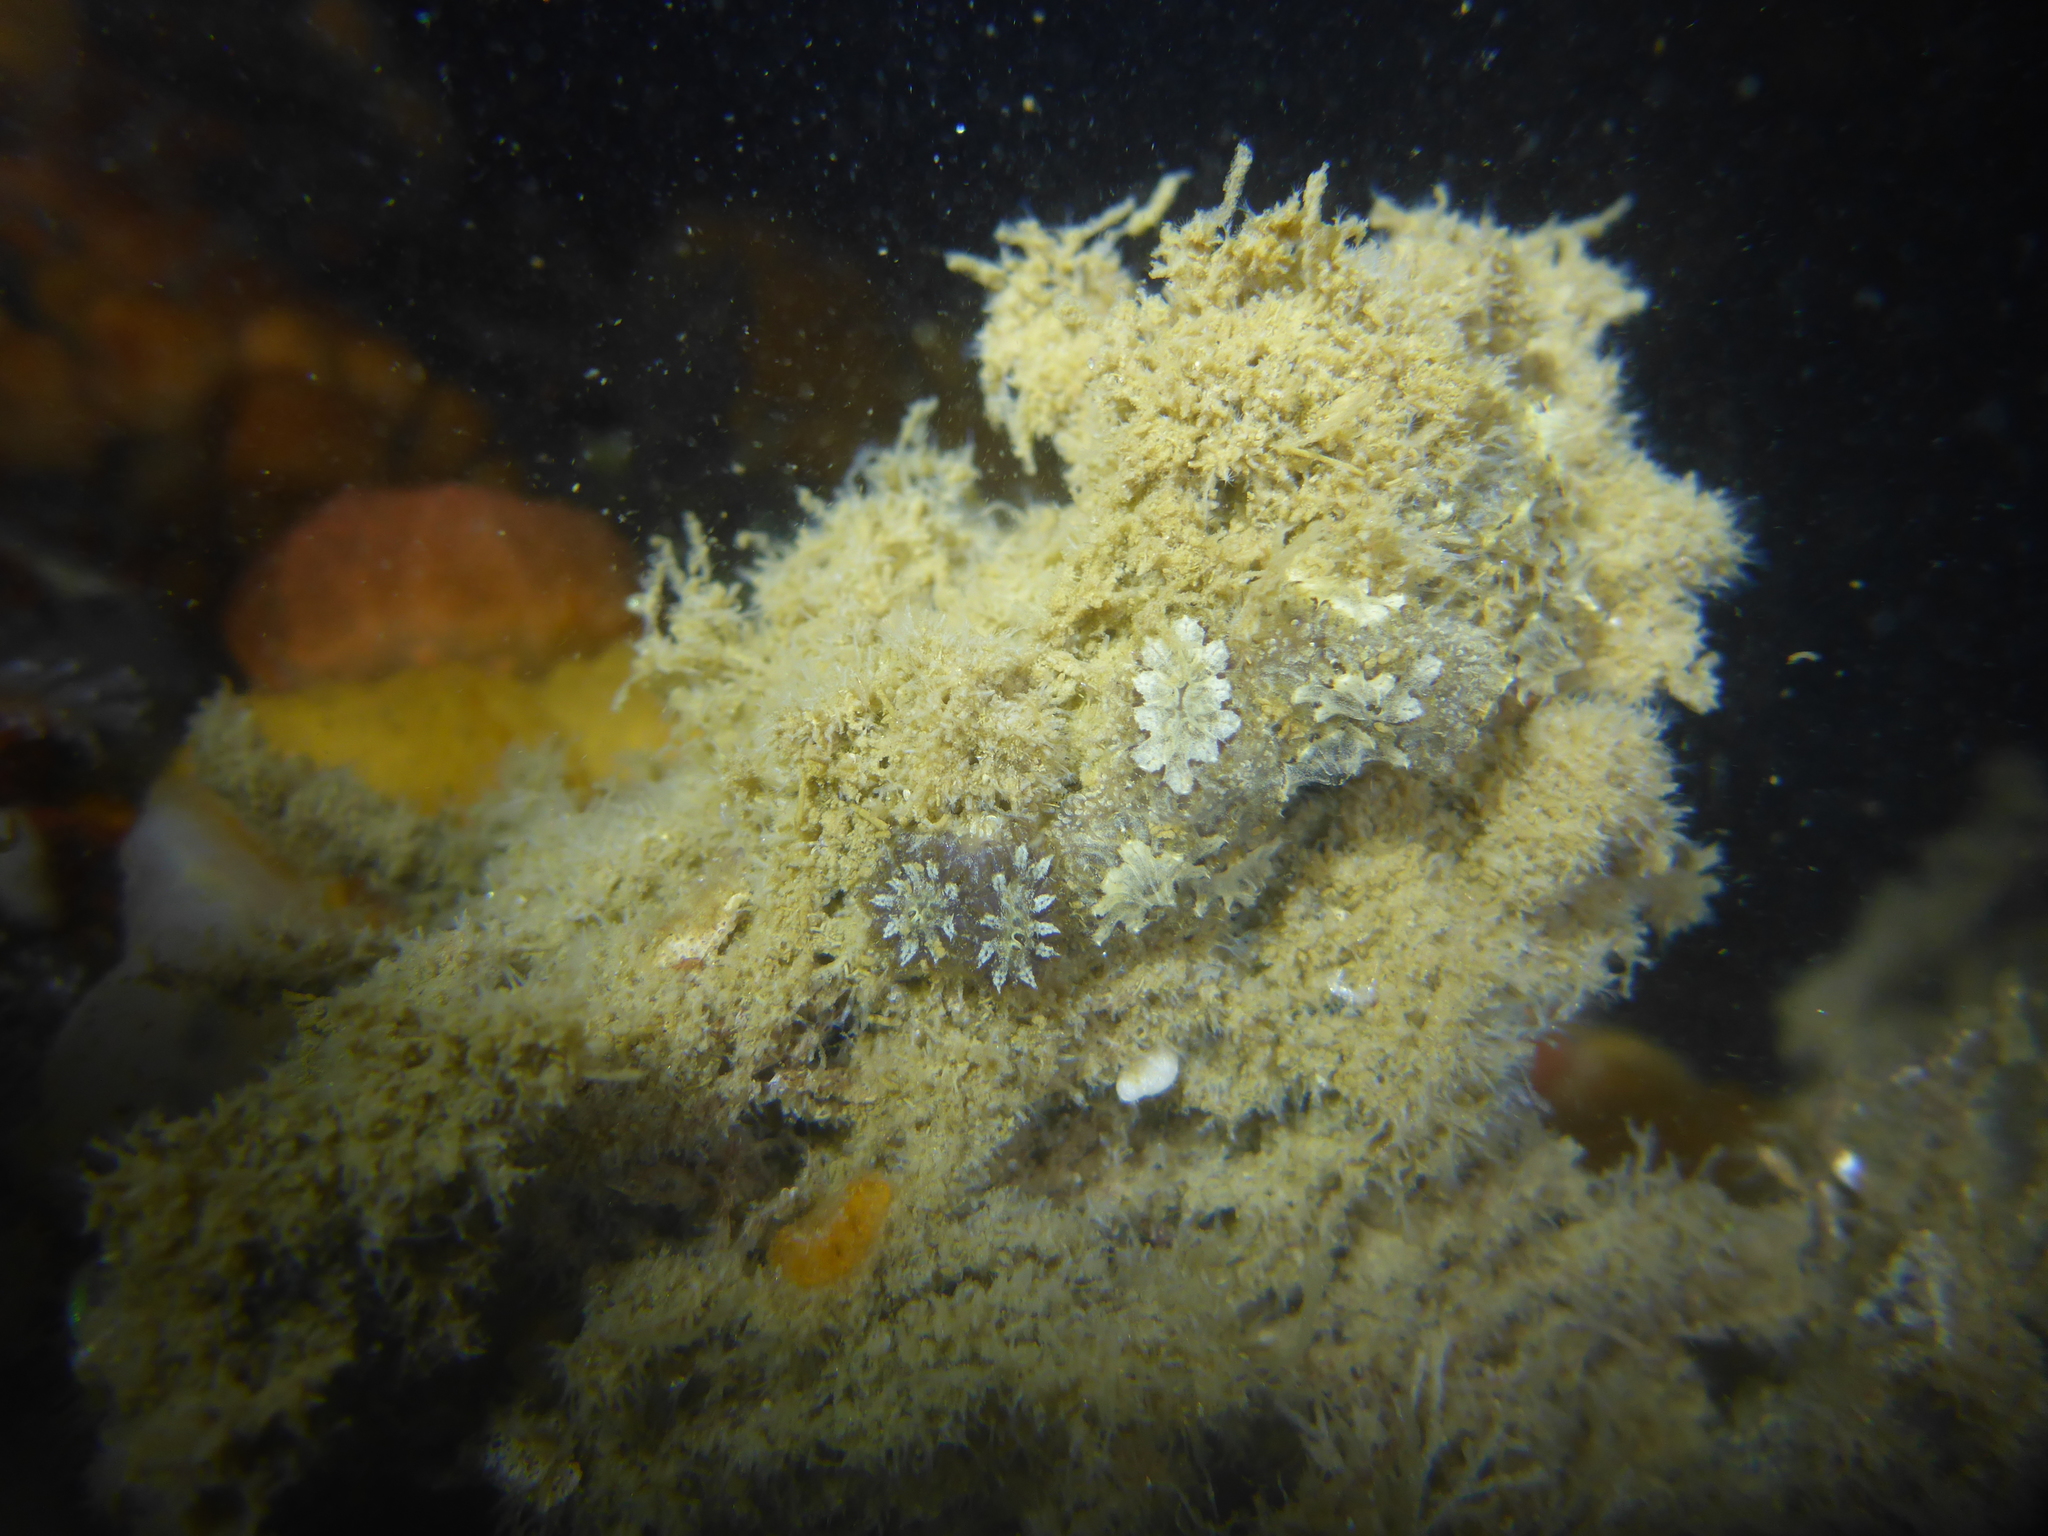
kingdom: Animalia
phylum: Chordata
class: Ascidiacea
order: Stolidobranchia
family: Styelidae
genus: Botryllus
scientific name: Botryllus schlosseri
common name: Golden star tunicate
